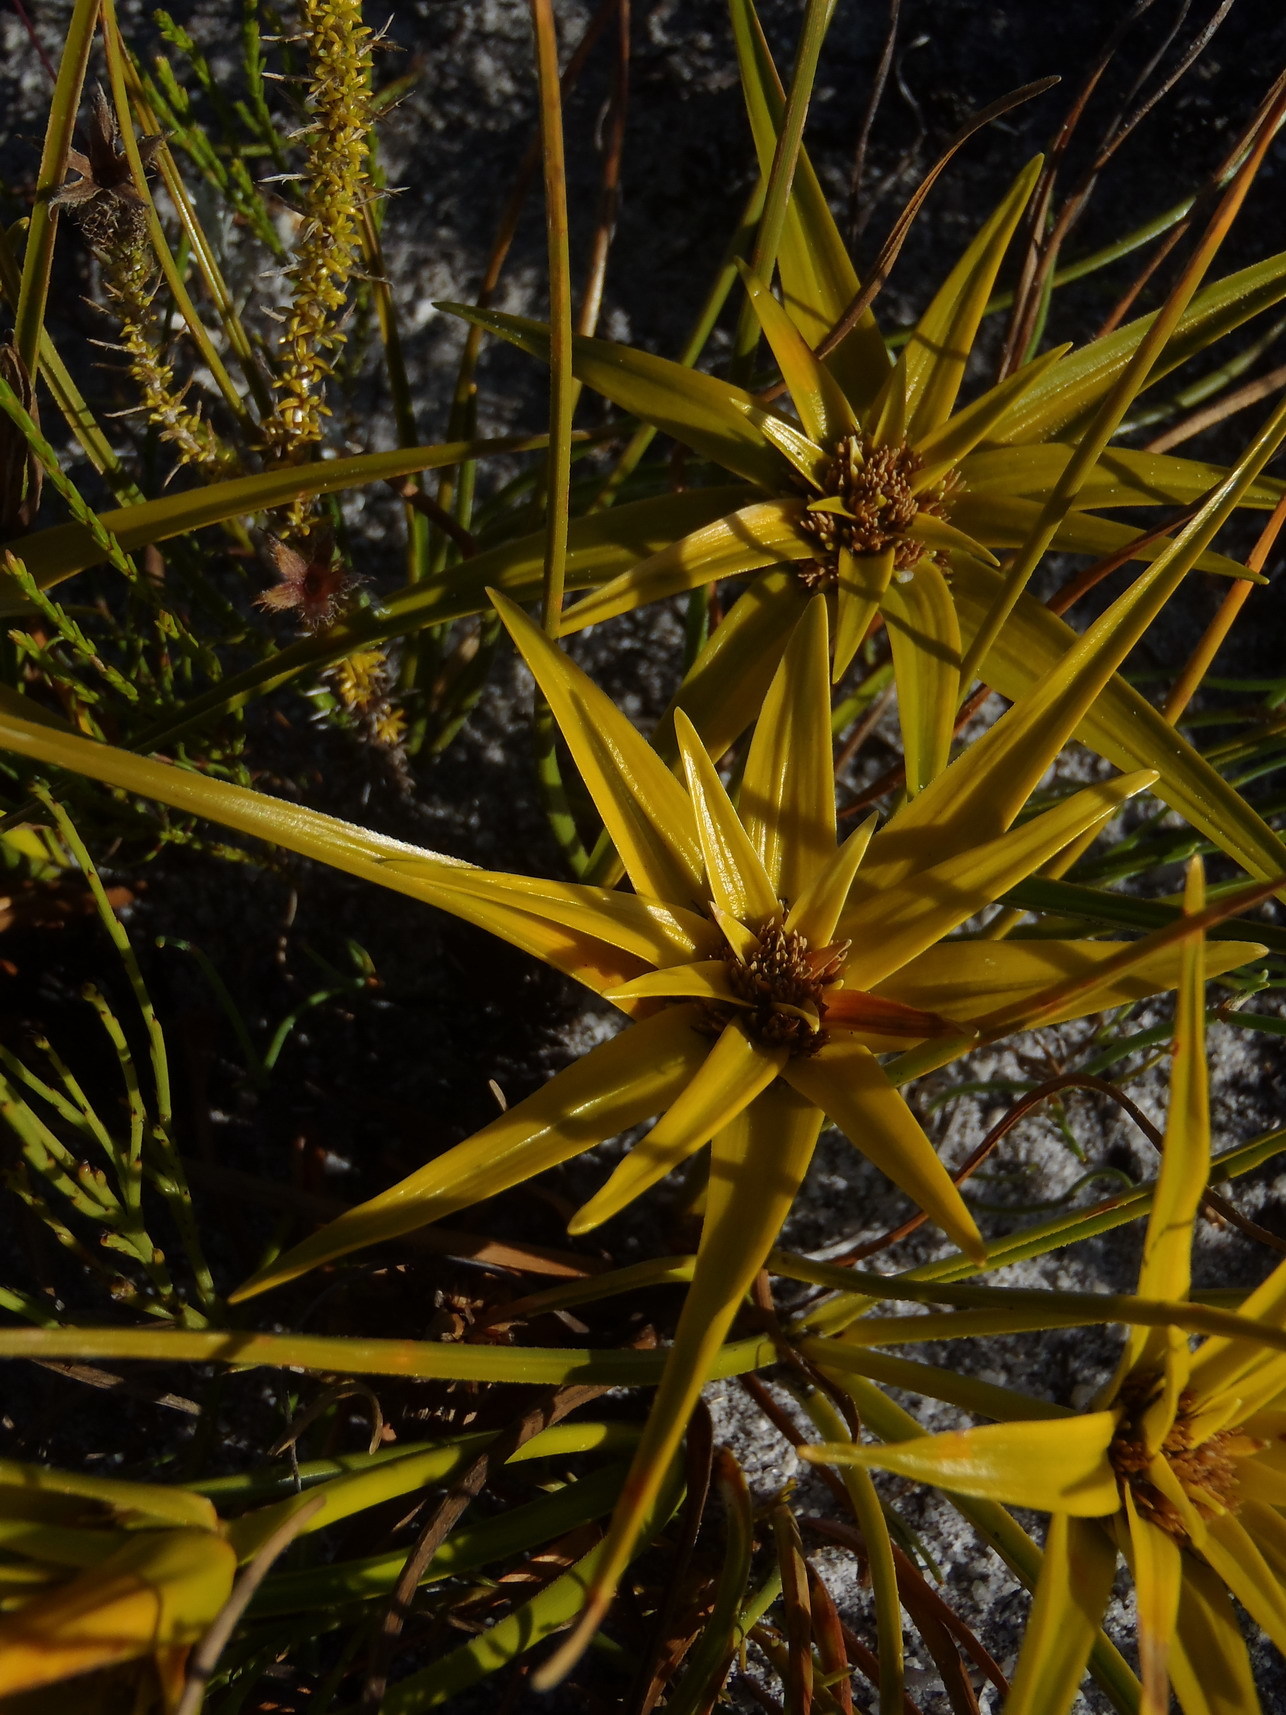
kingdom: Plantae
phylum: Tracheophyta
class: Liliopsida
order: Poales
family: Cyperaceae
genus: Ficinia
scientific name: Ficinia radiata
